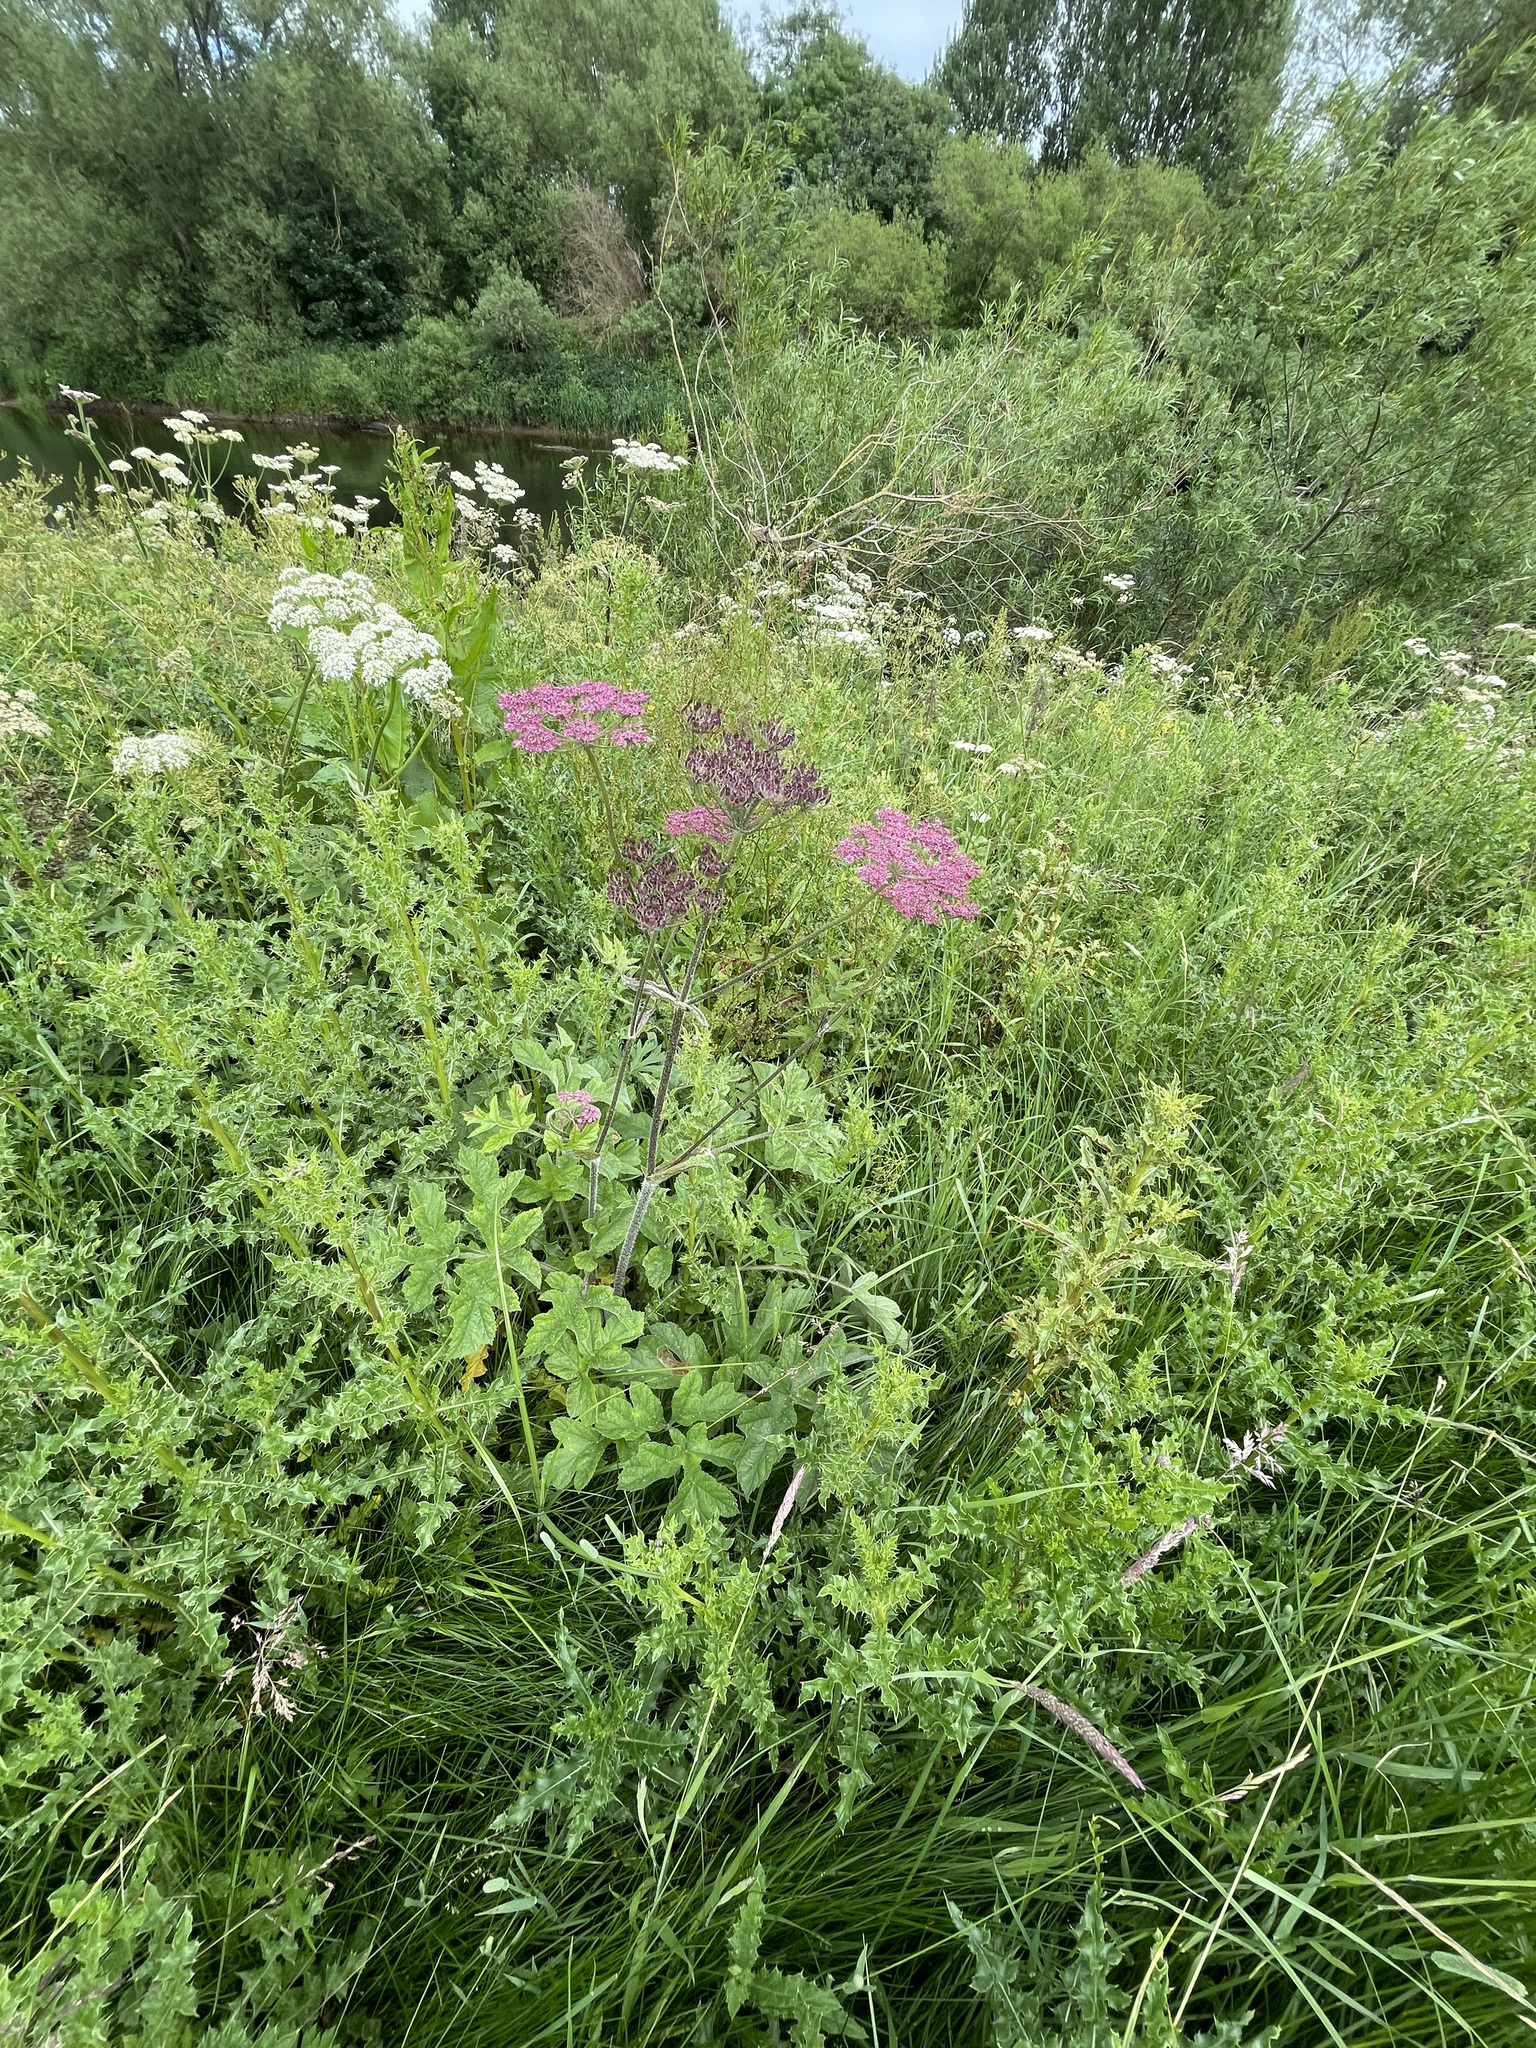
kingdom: Plantae
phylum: Tracheophyta
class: Magnoliopsida
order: Apiales
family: Apiaceae
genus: Heracleum
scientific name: Heracleum sphondylium
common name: Hogweed
